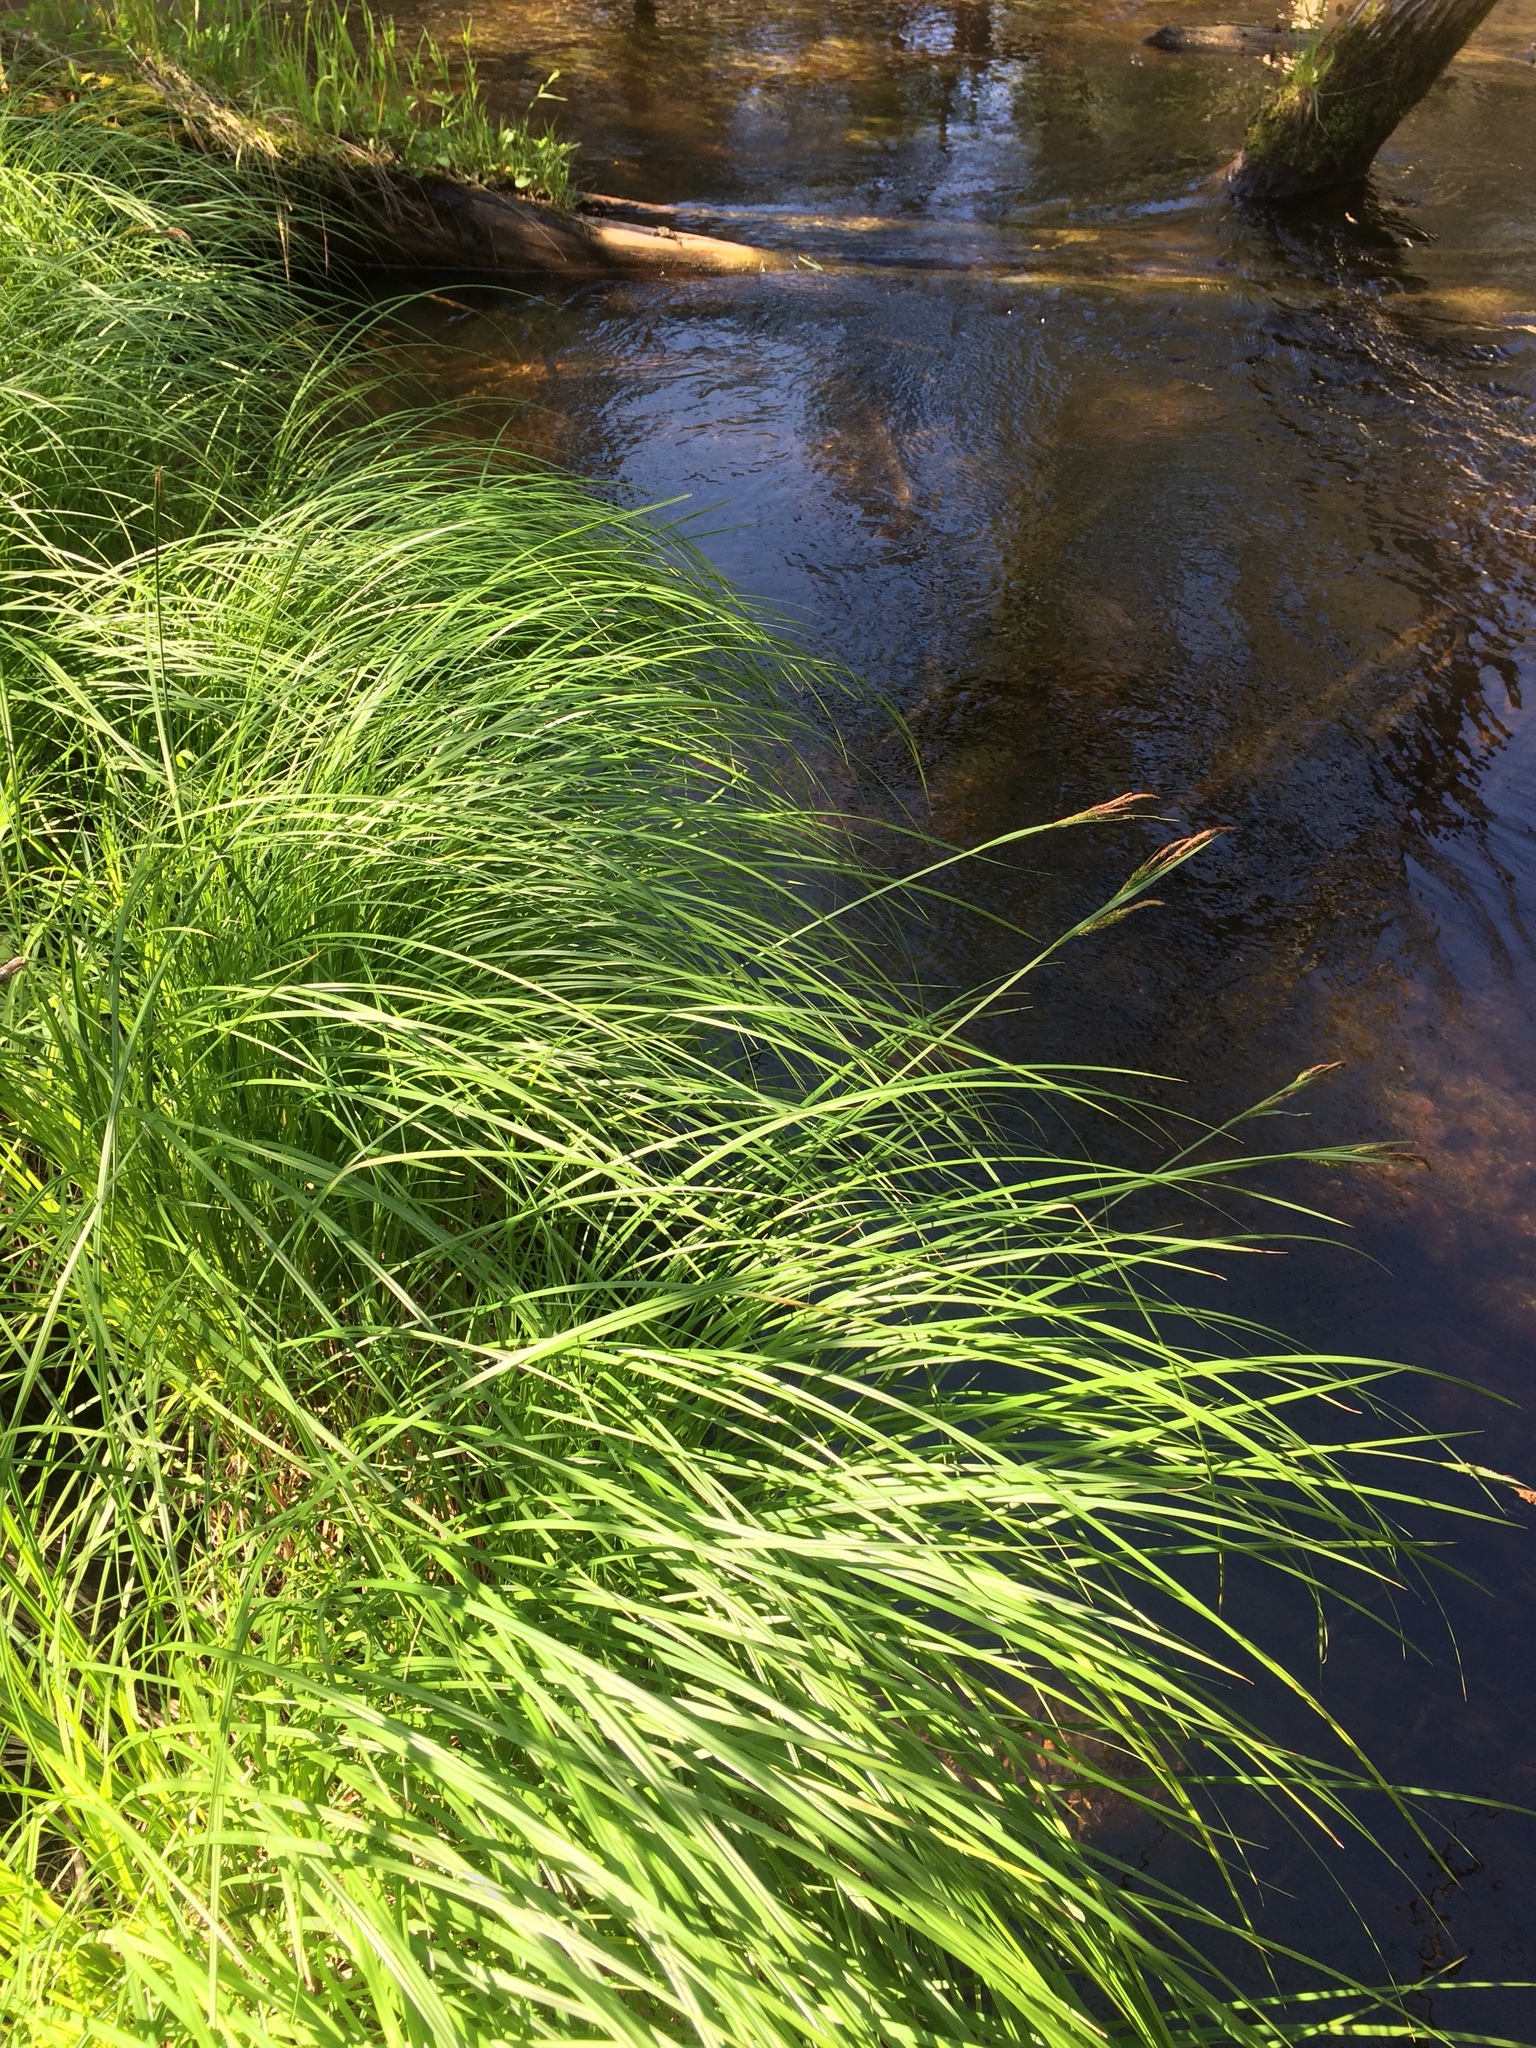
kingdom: Plantae
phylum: Tracheophyta
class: Liliopsida
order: Poales
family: Cyperaceae
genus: Carex
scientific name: Carex stricta
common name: Hummock sedge
